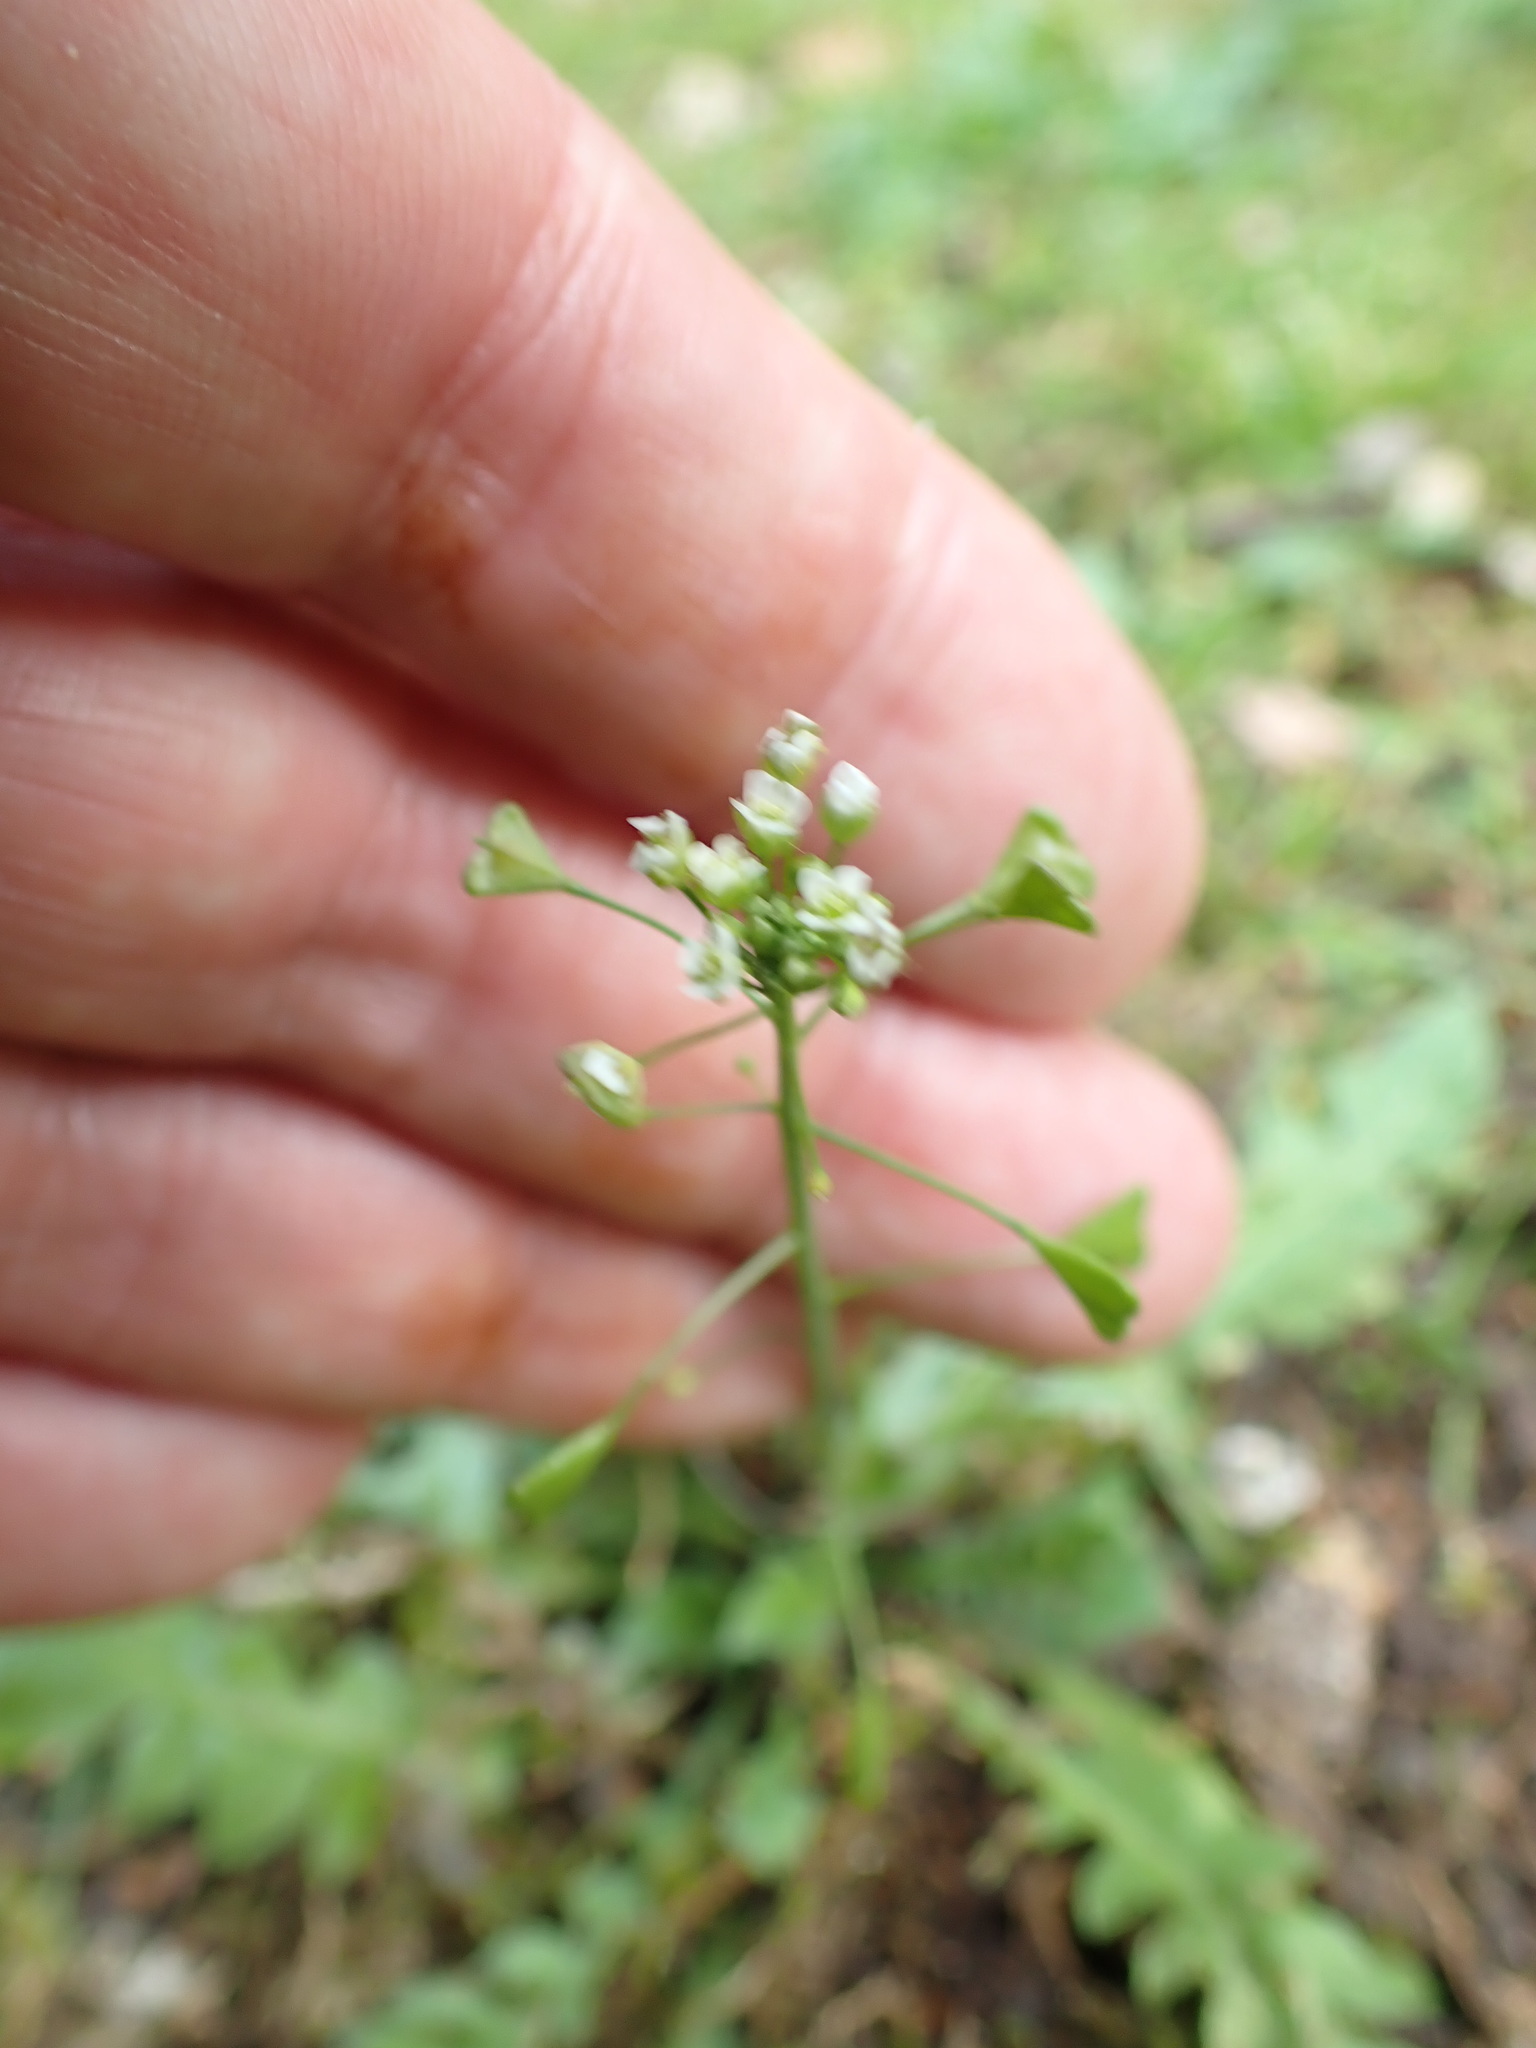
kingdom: Plantae
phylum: Tracheophyta
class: Magnoliopsida
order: Brassicales
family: Brassicaceae
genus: Capsella
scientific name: Capsella bursa-pastoris
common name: Shepherd's purse
